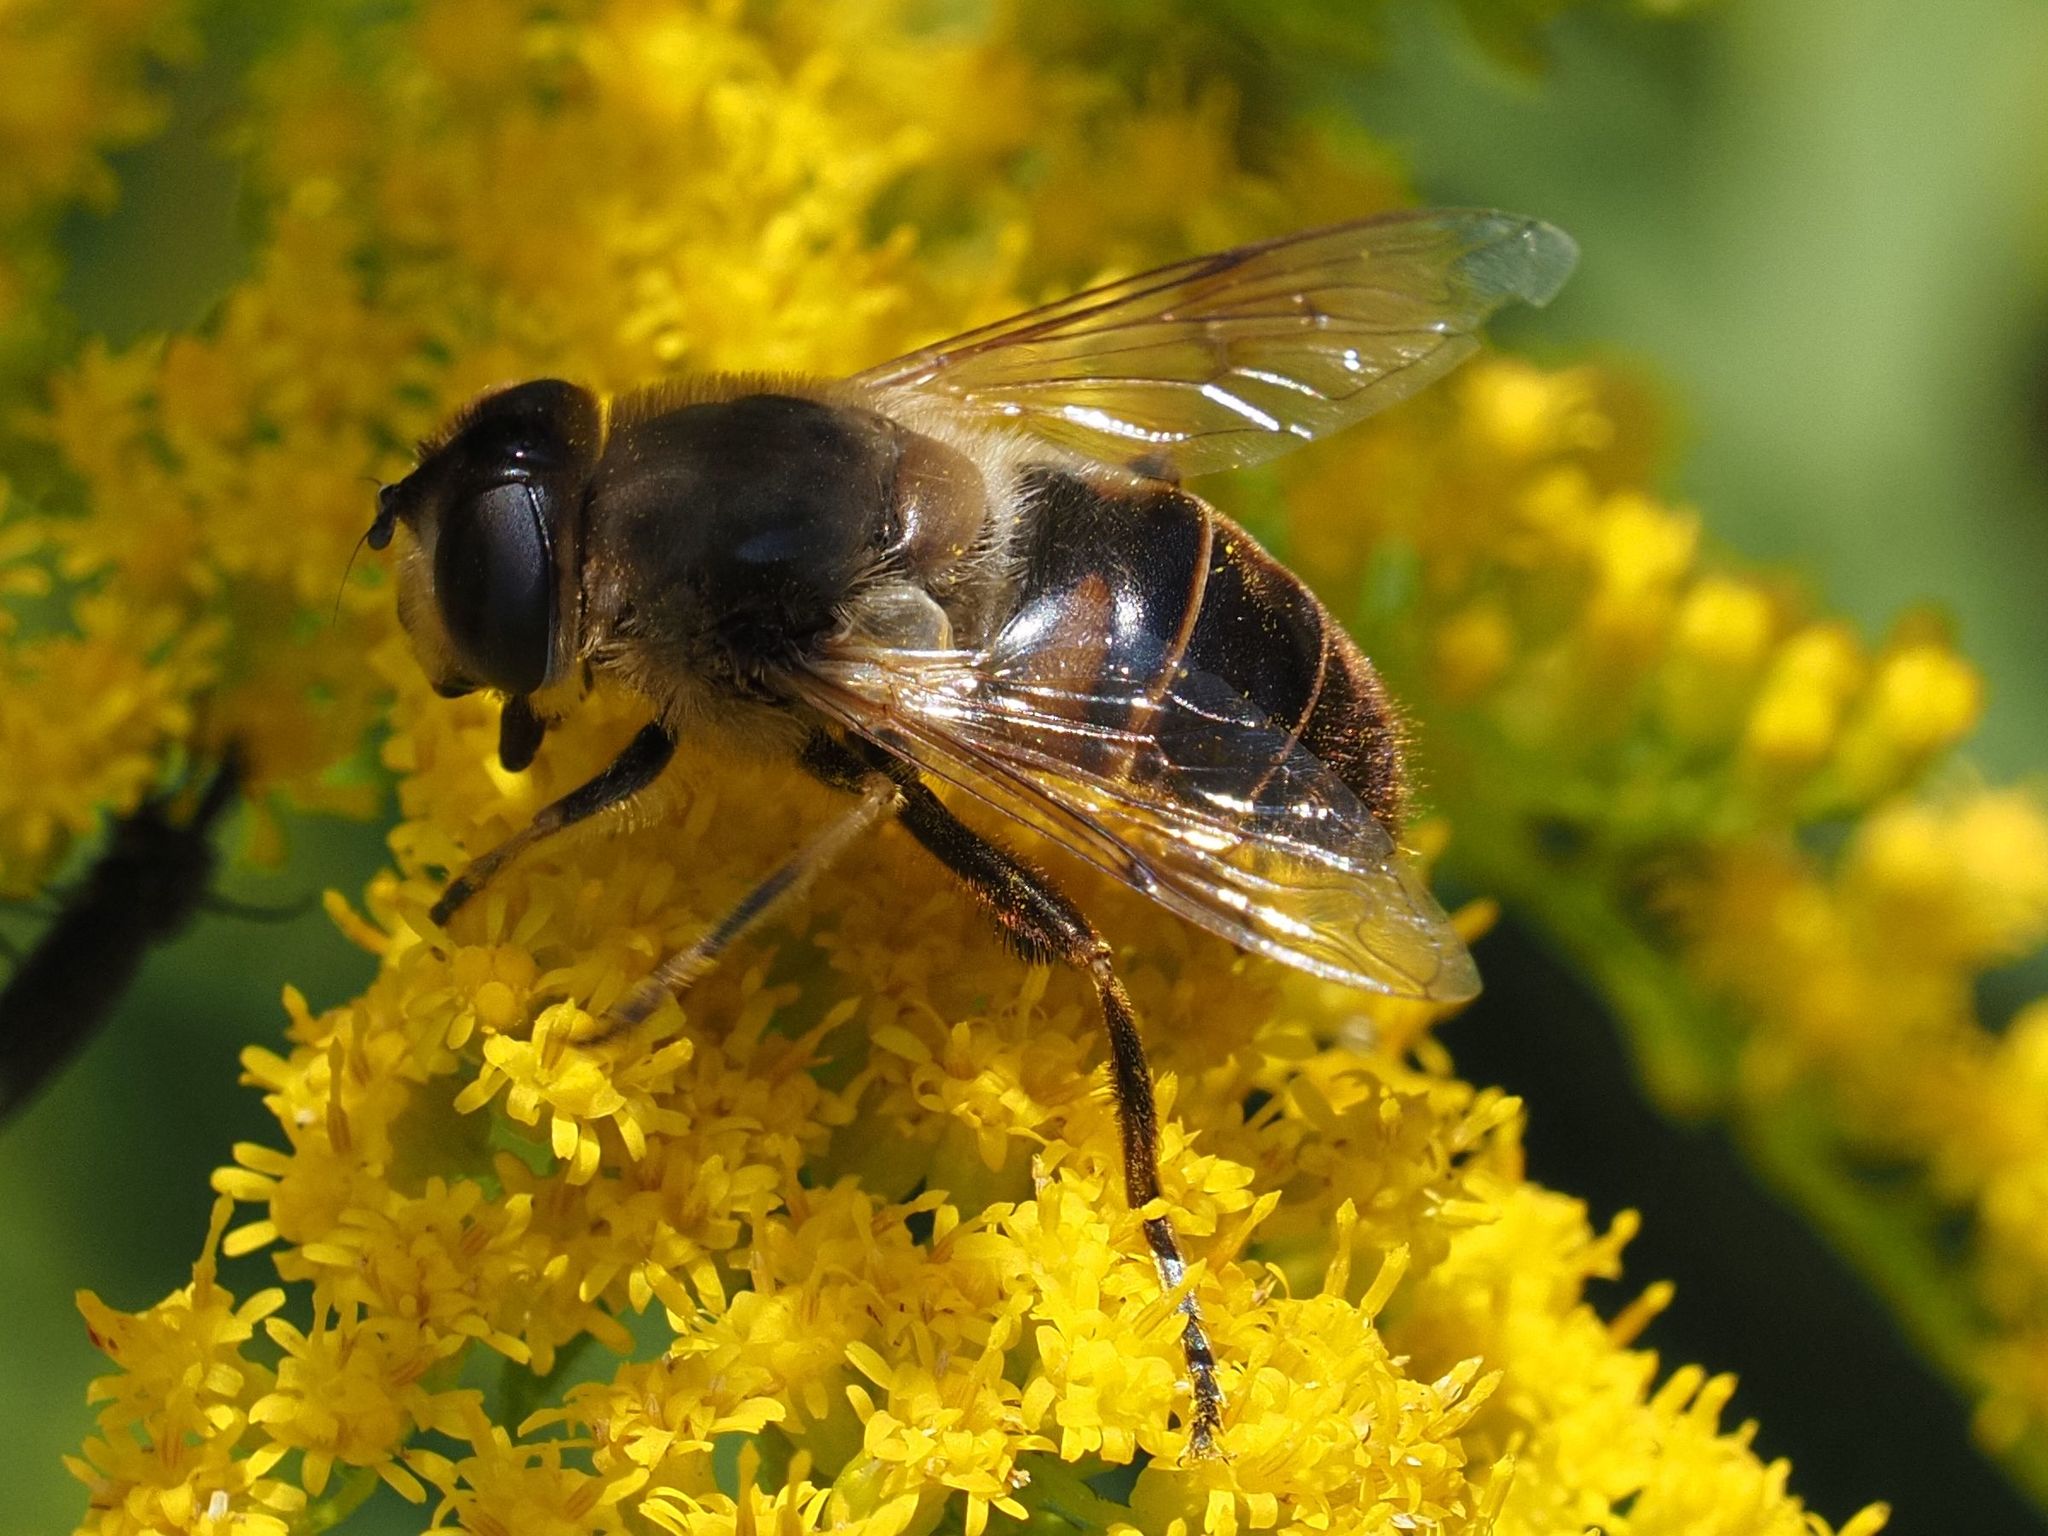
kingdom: Animalia
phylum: Arthropoda
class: Insecta
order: Diptera
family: Syrphidae
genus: Eristalis
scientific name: Eristalis tenax
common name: Drone fly
